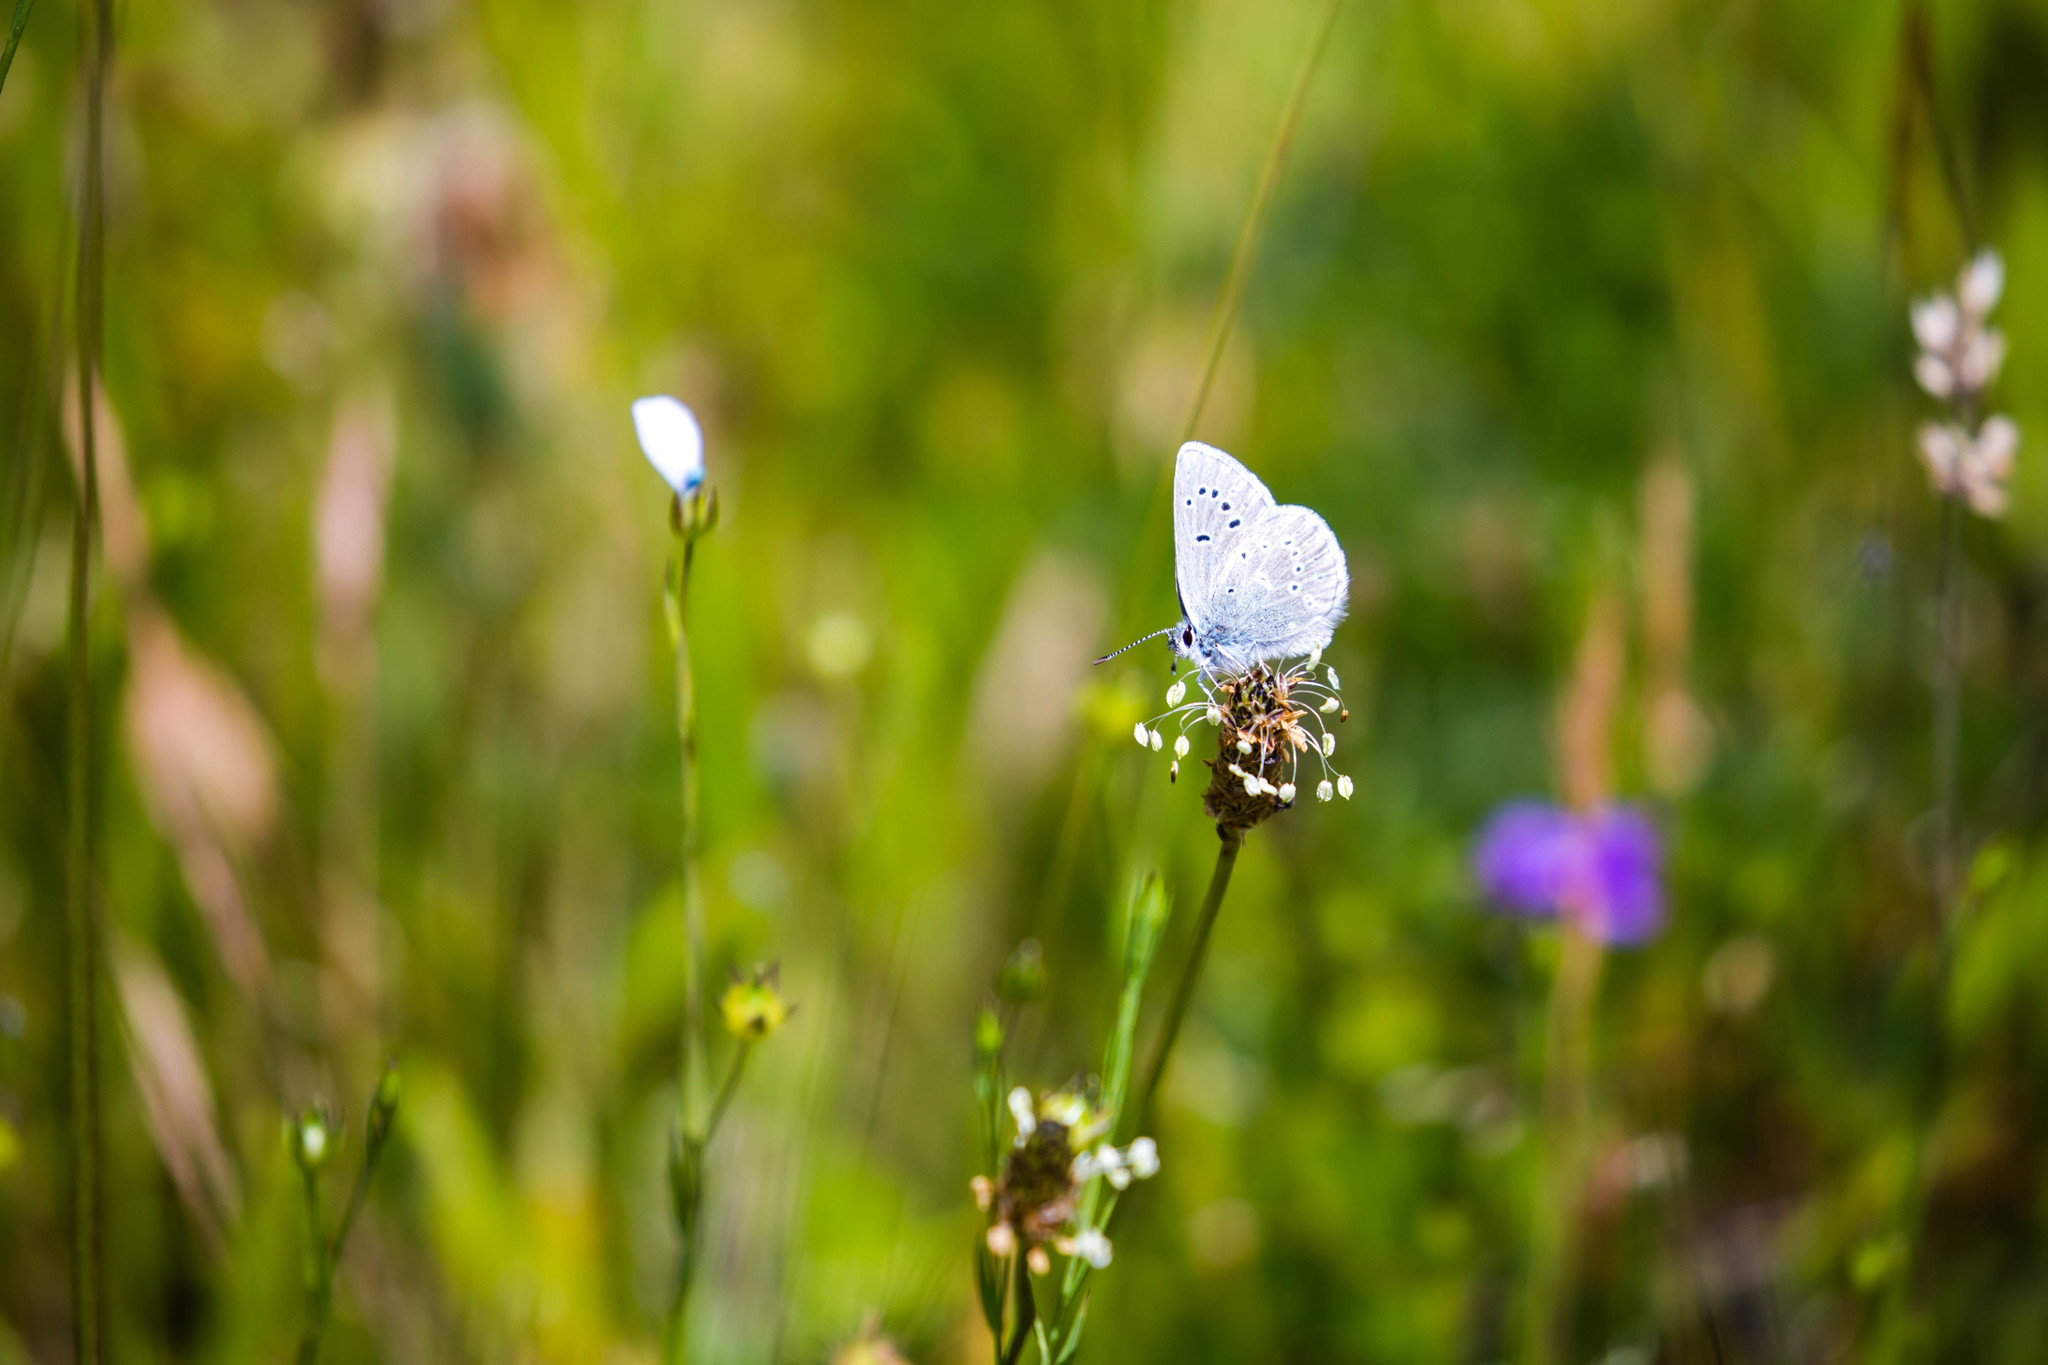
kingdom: Animalia
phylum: Arthropoda
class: Insecta
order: Lepidoptera
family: Lycaenidae
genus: Icaricia
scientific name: Icaricia icarioides
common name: Boisduval's blue
